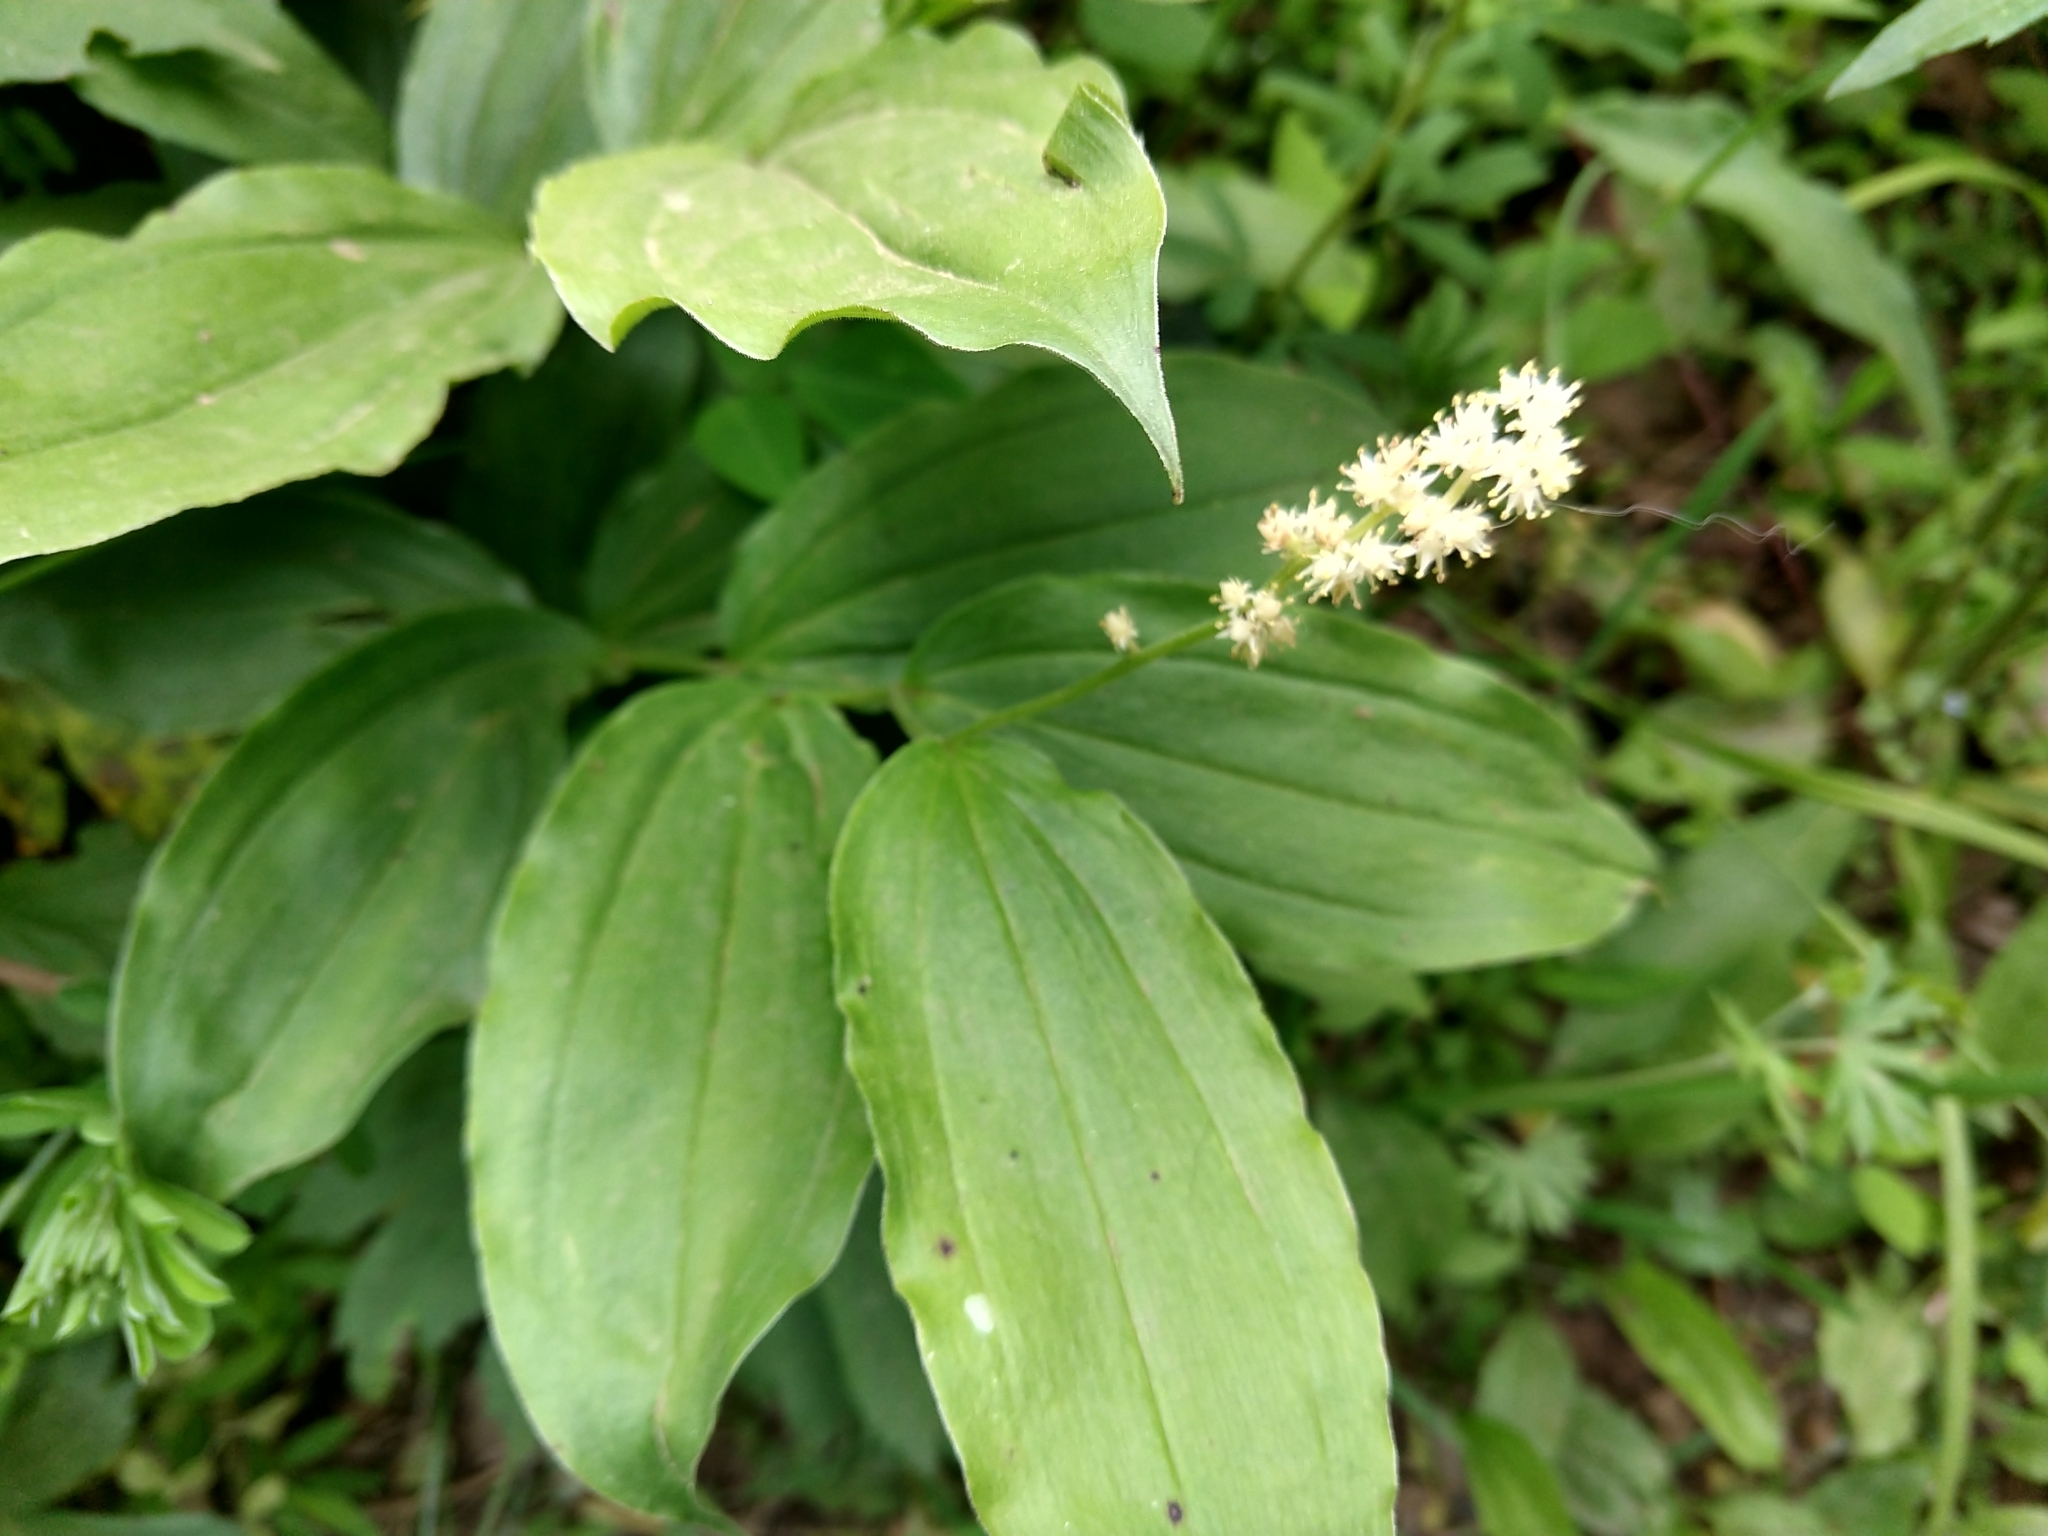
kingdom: Plantae
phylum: Tracheophyta
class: Liliopsida
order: Asparagales
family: Asparagaceae
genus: Maianthemum
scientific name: Maianthemum racemosum
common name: False spikenard
